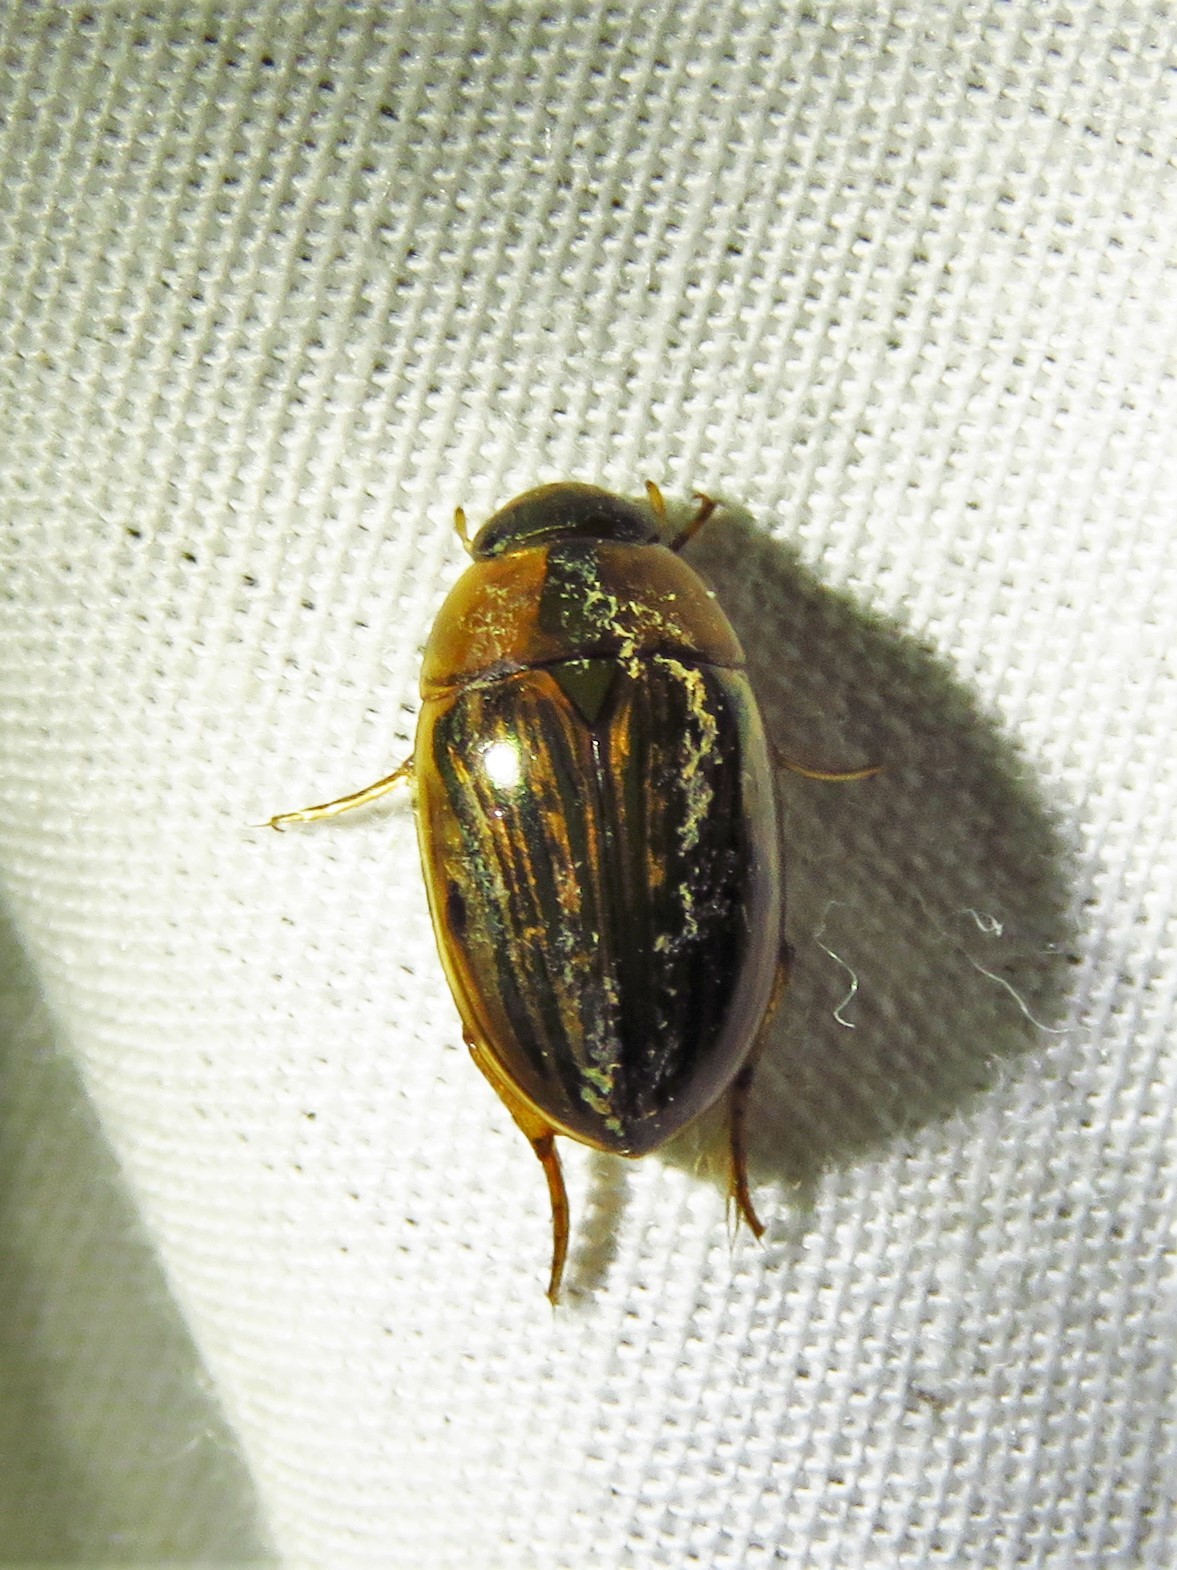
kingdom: Animalia
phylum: Arthropoda
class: Insecta
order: Coleoptera
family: Hydrophilidae
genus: Tropisternus
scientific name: Tropisternus collaris
